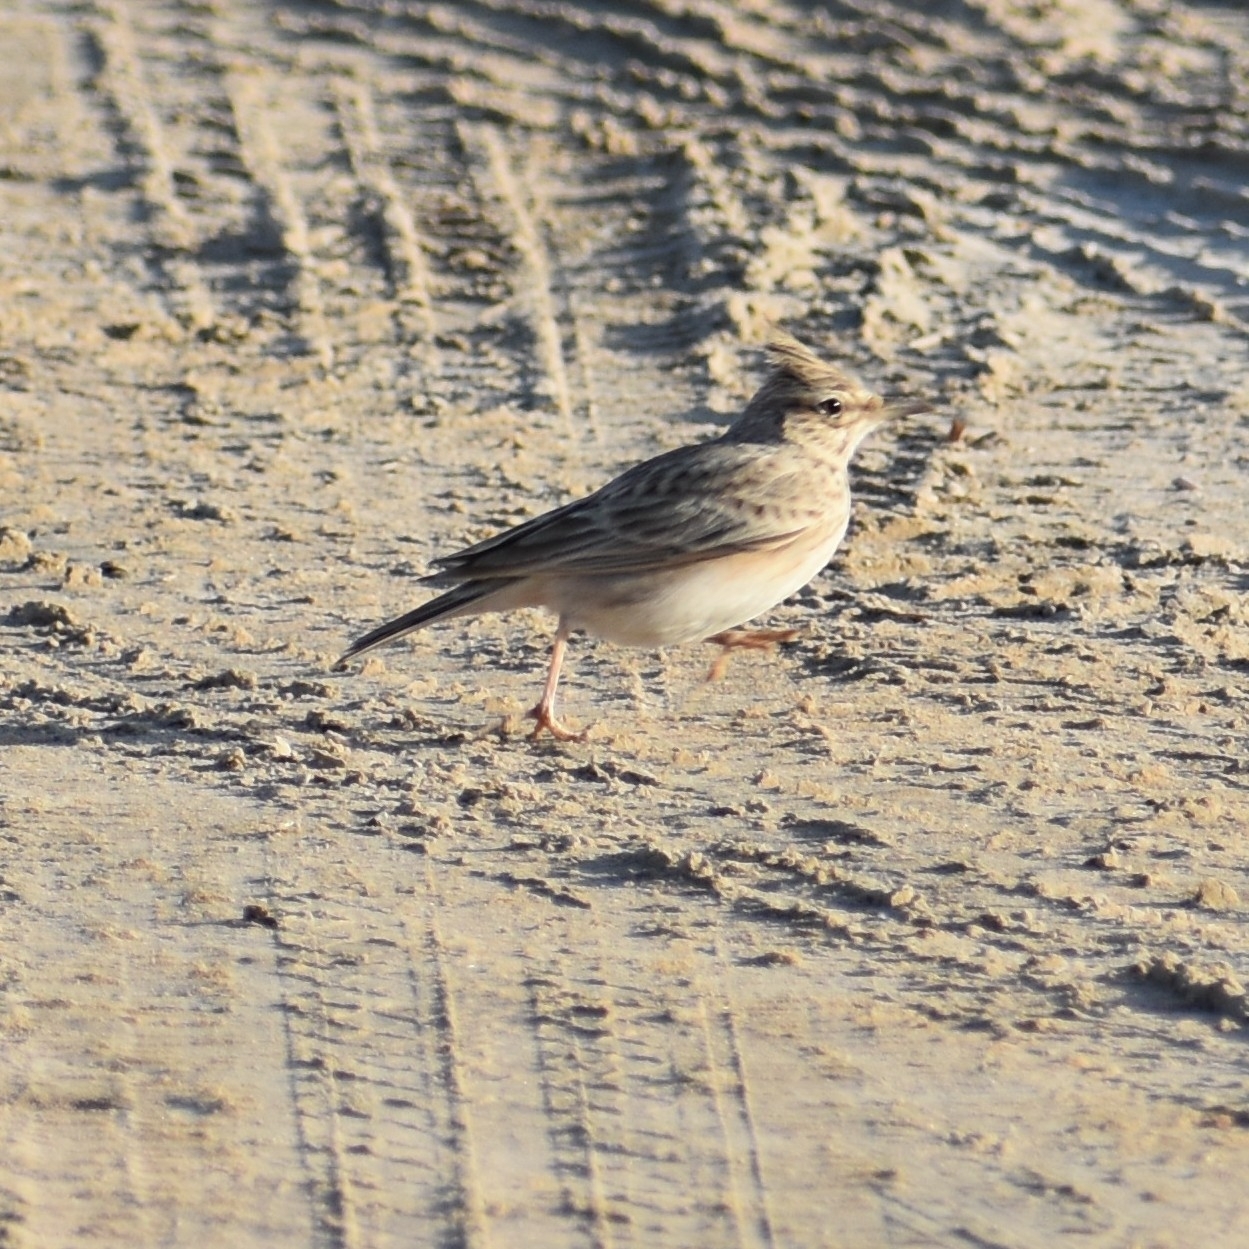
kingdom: Animalia
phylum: Chordata
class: Aves
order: Passeriformes
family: Alaudidae
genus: Galerida
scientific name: Galerida cristata
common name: Crested lark
